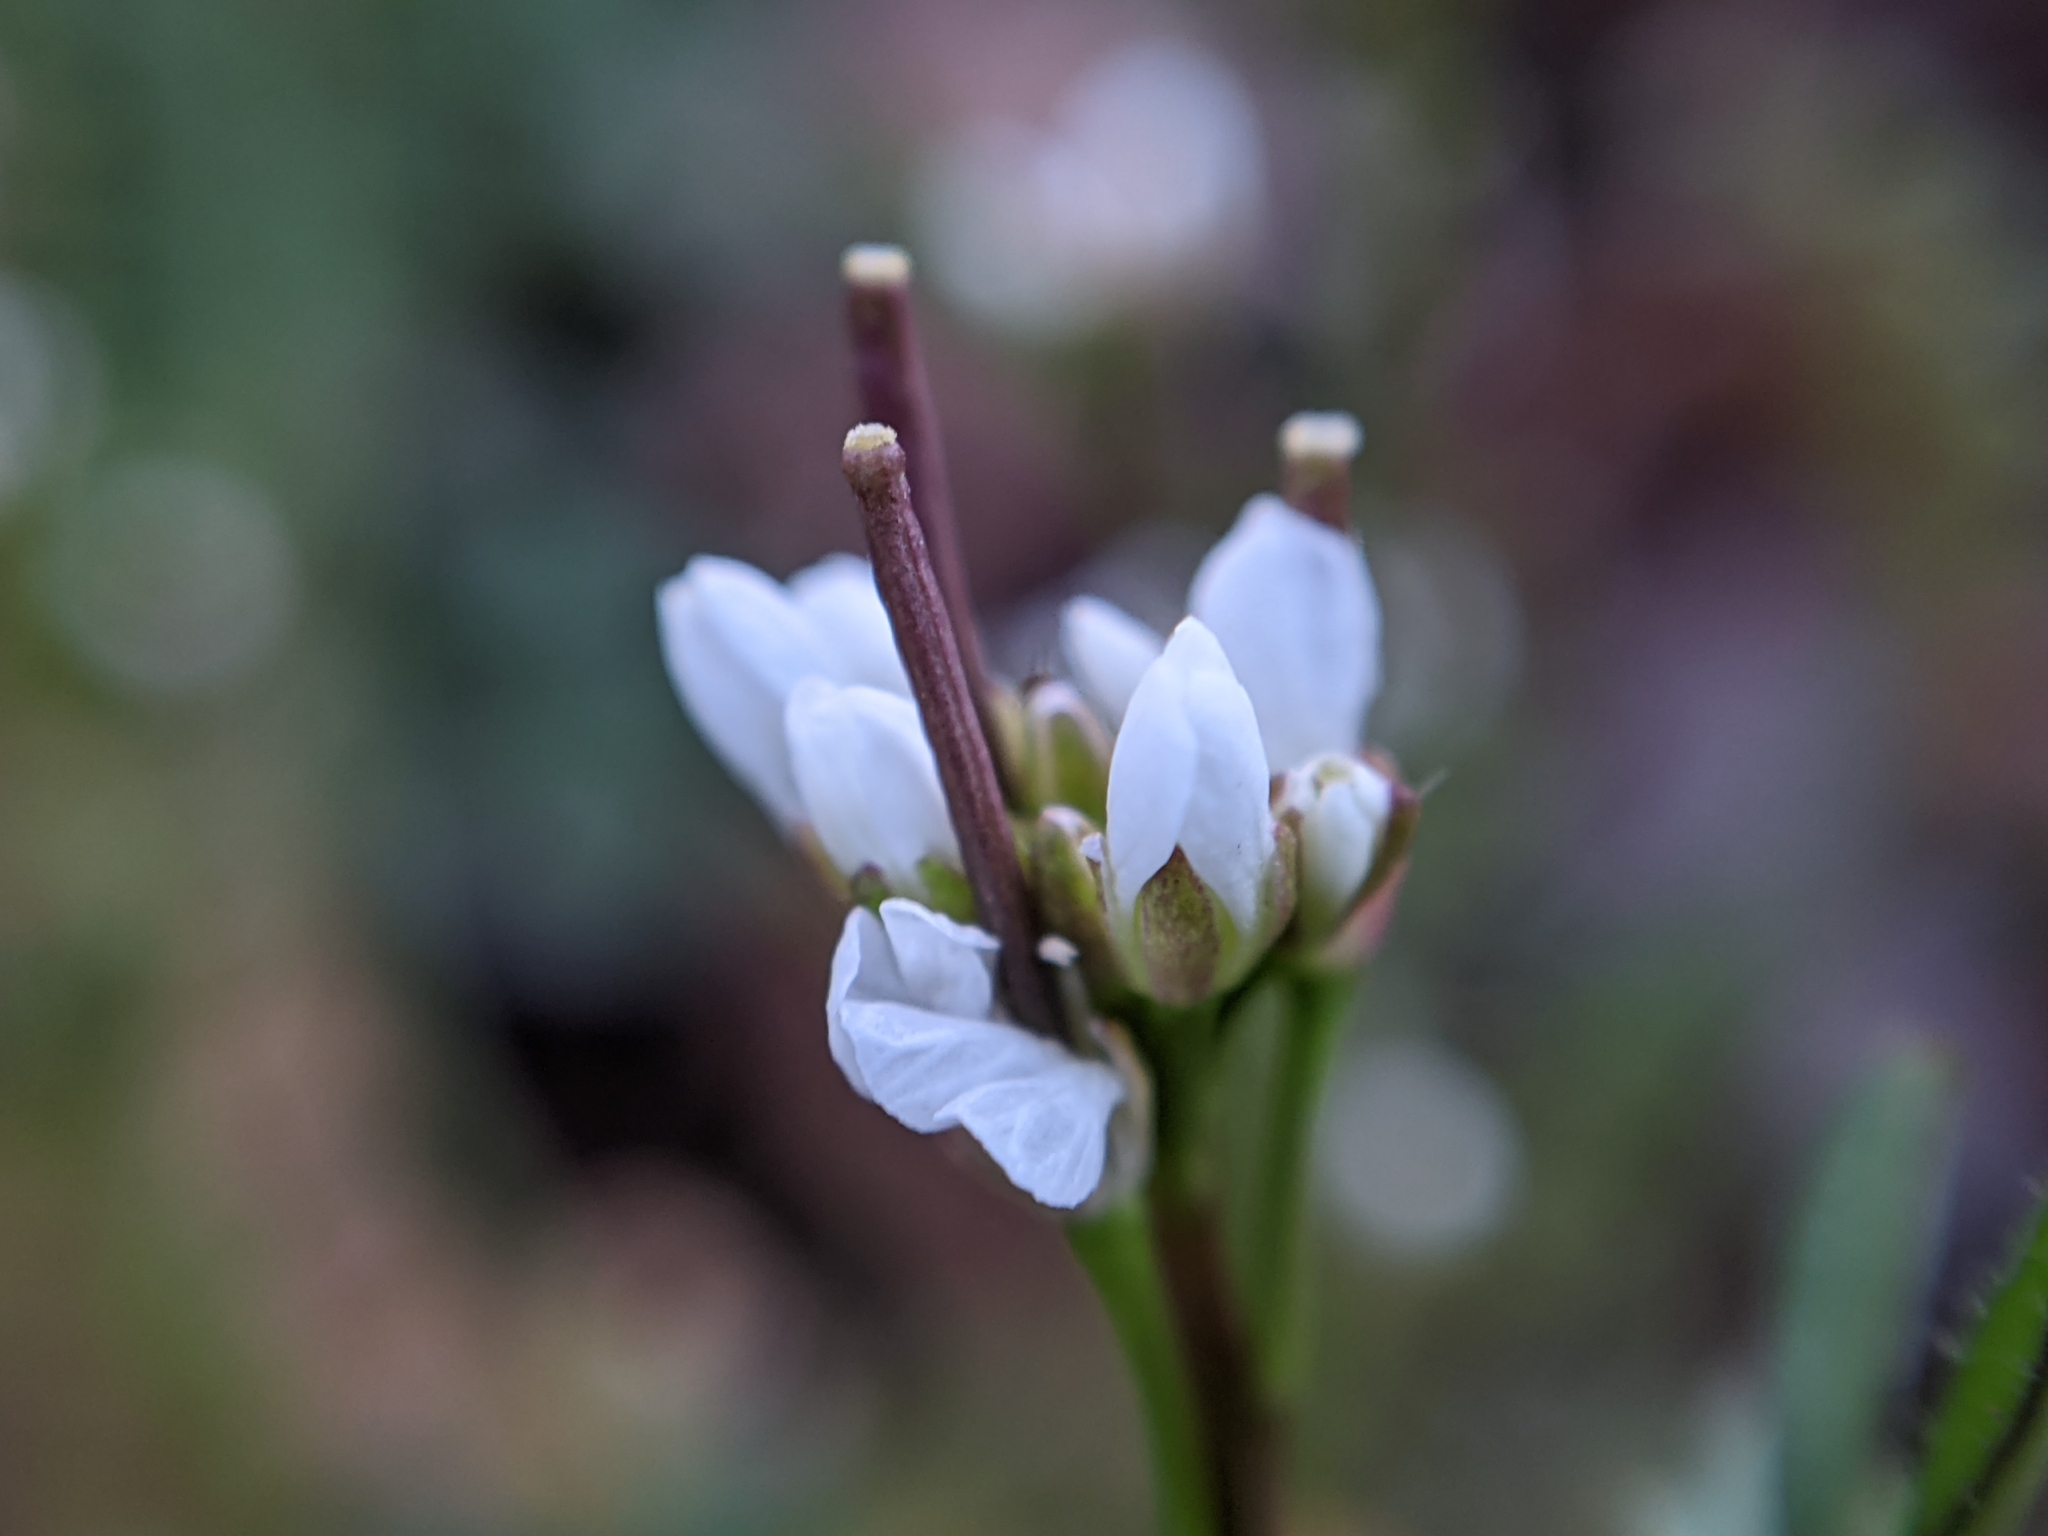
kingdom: Plantae
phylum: Tracheophyta
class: Magnoliopsida
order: Brassicales
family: Brassicaceae
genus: Cardamine
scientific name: Cardamine hirsuta
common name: Hairy bittercress
